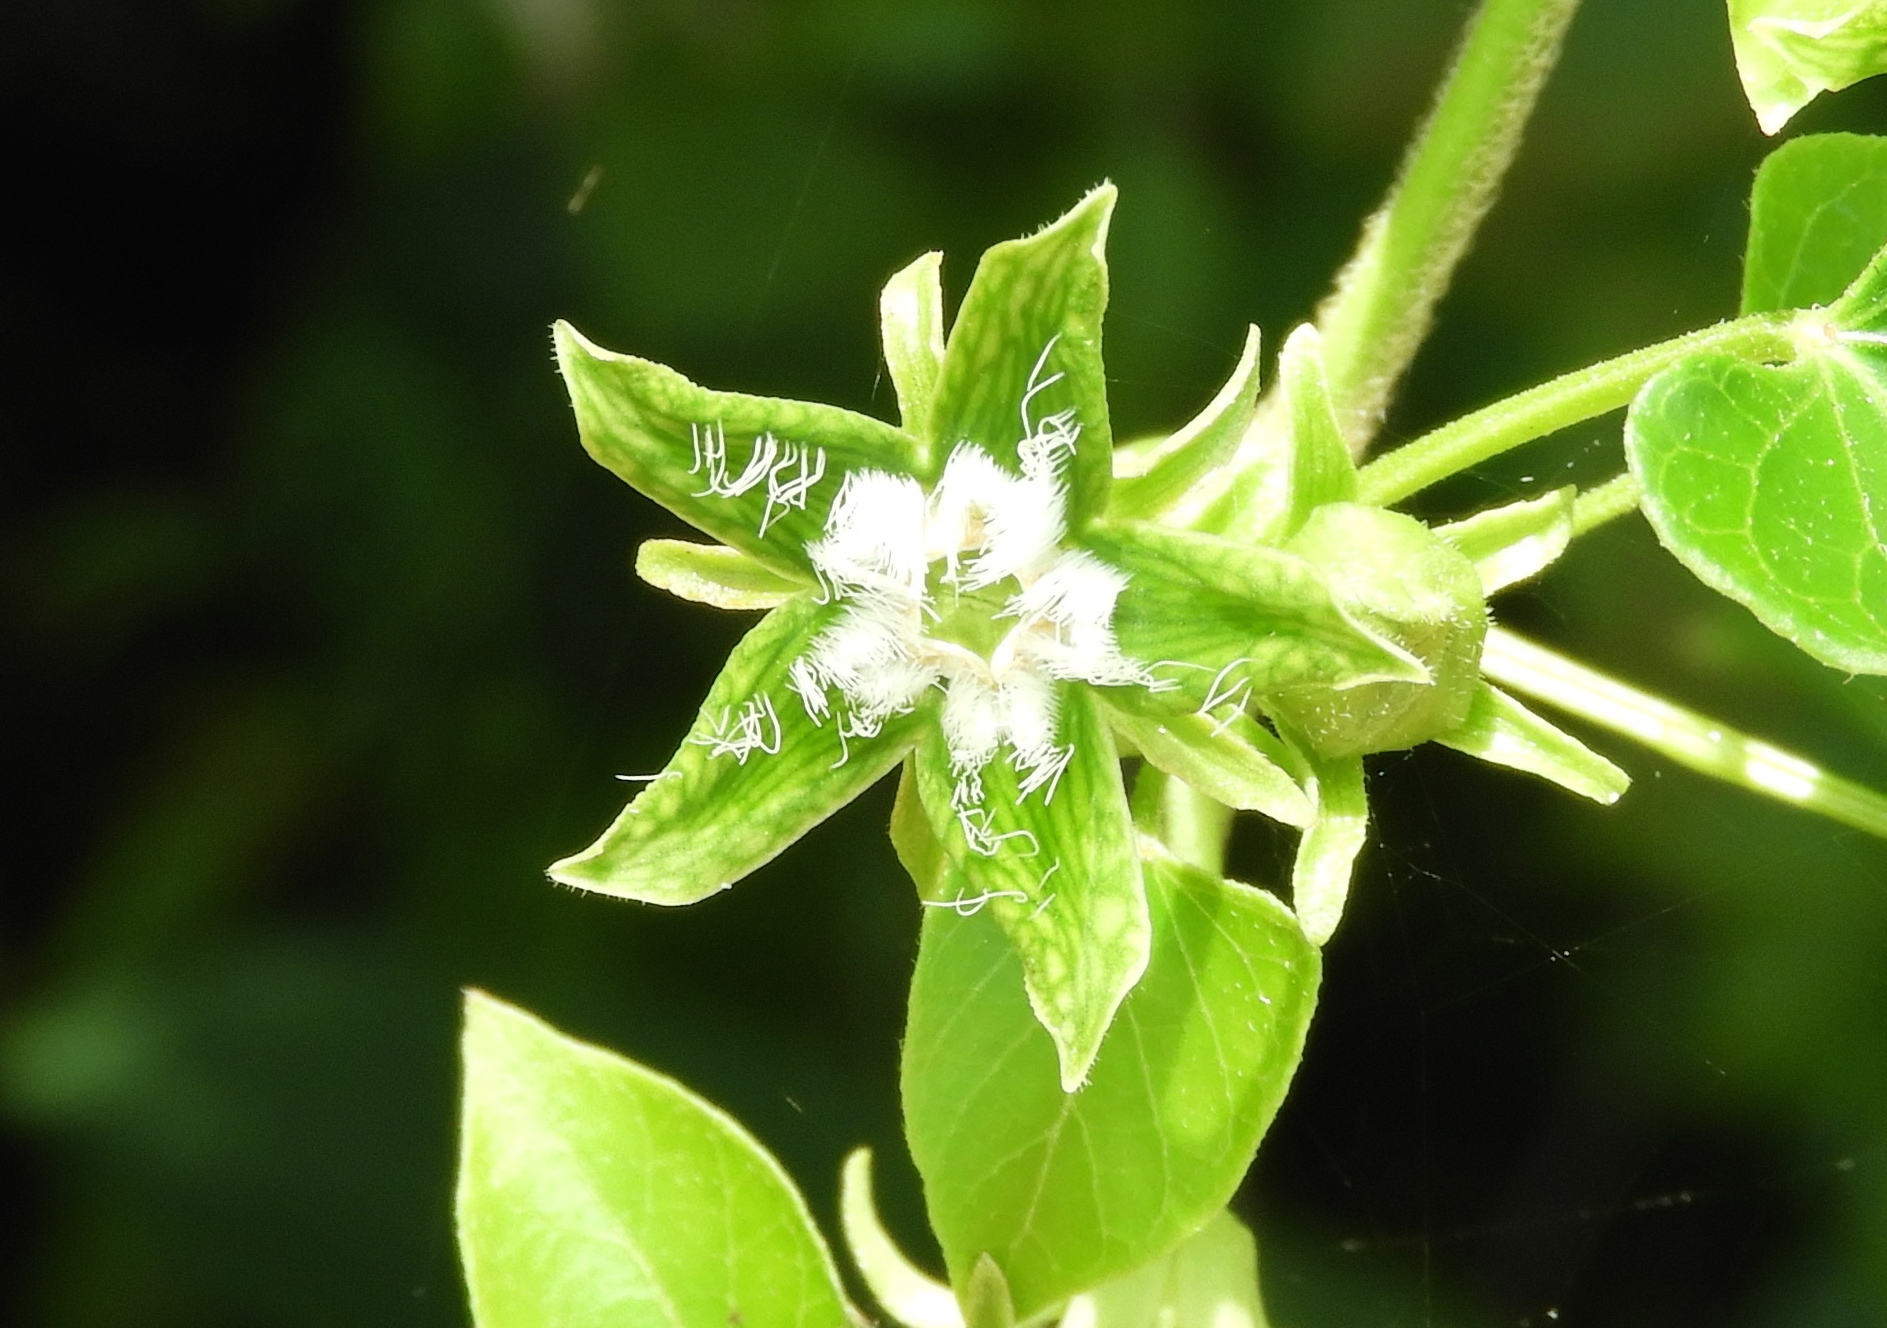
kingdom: Plantae
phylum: Tracheophyta
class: Magnoliopsida
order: Gentianales
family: Apocynaceae
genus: Gonolobus
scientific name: Gonolobus naturalistae
